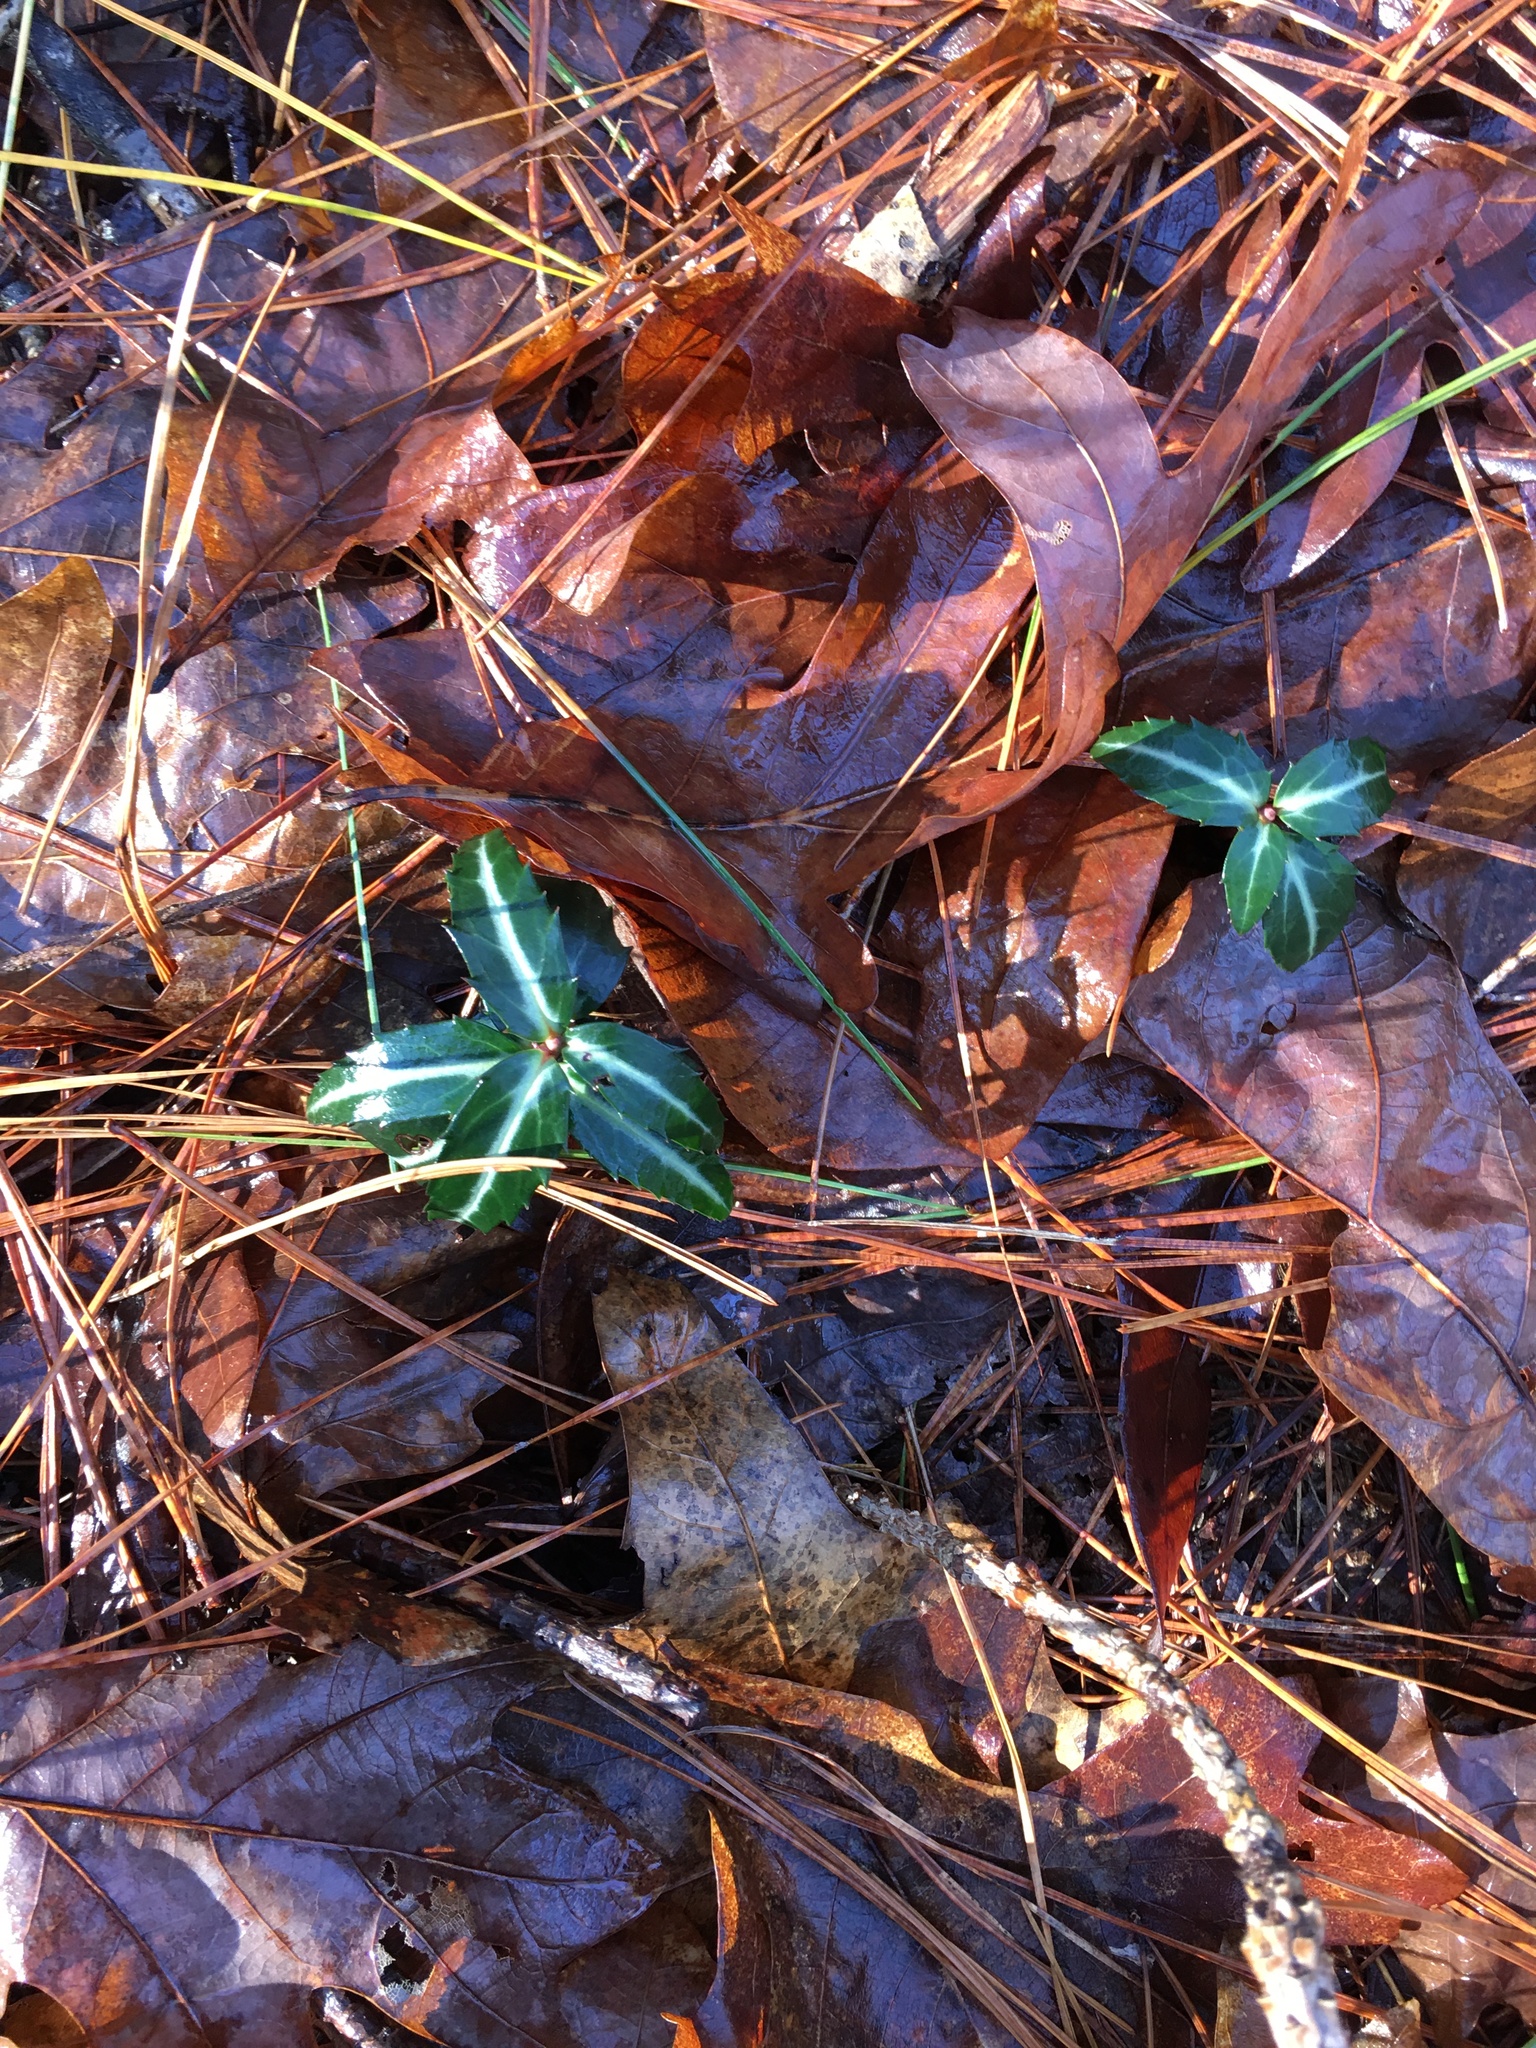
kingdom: Plantae
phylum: Tracheophyta
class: Magnoliopsida
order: Ericales
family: Ericaceae
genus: Chimaphila
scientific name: Chimaphila maculata
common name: Spotted pipsissewa
